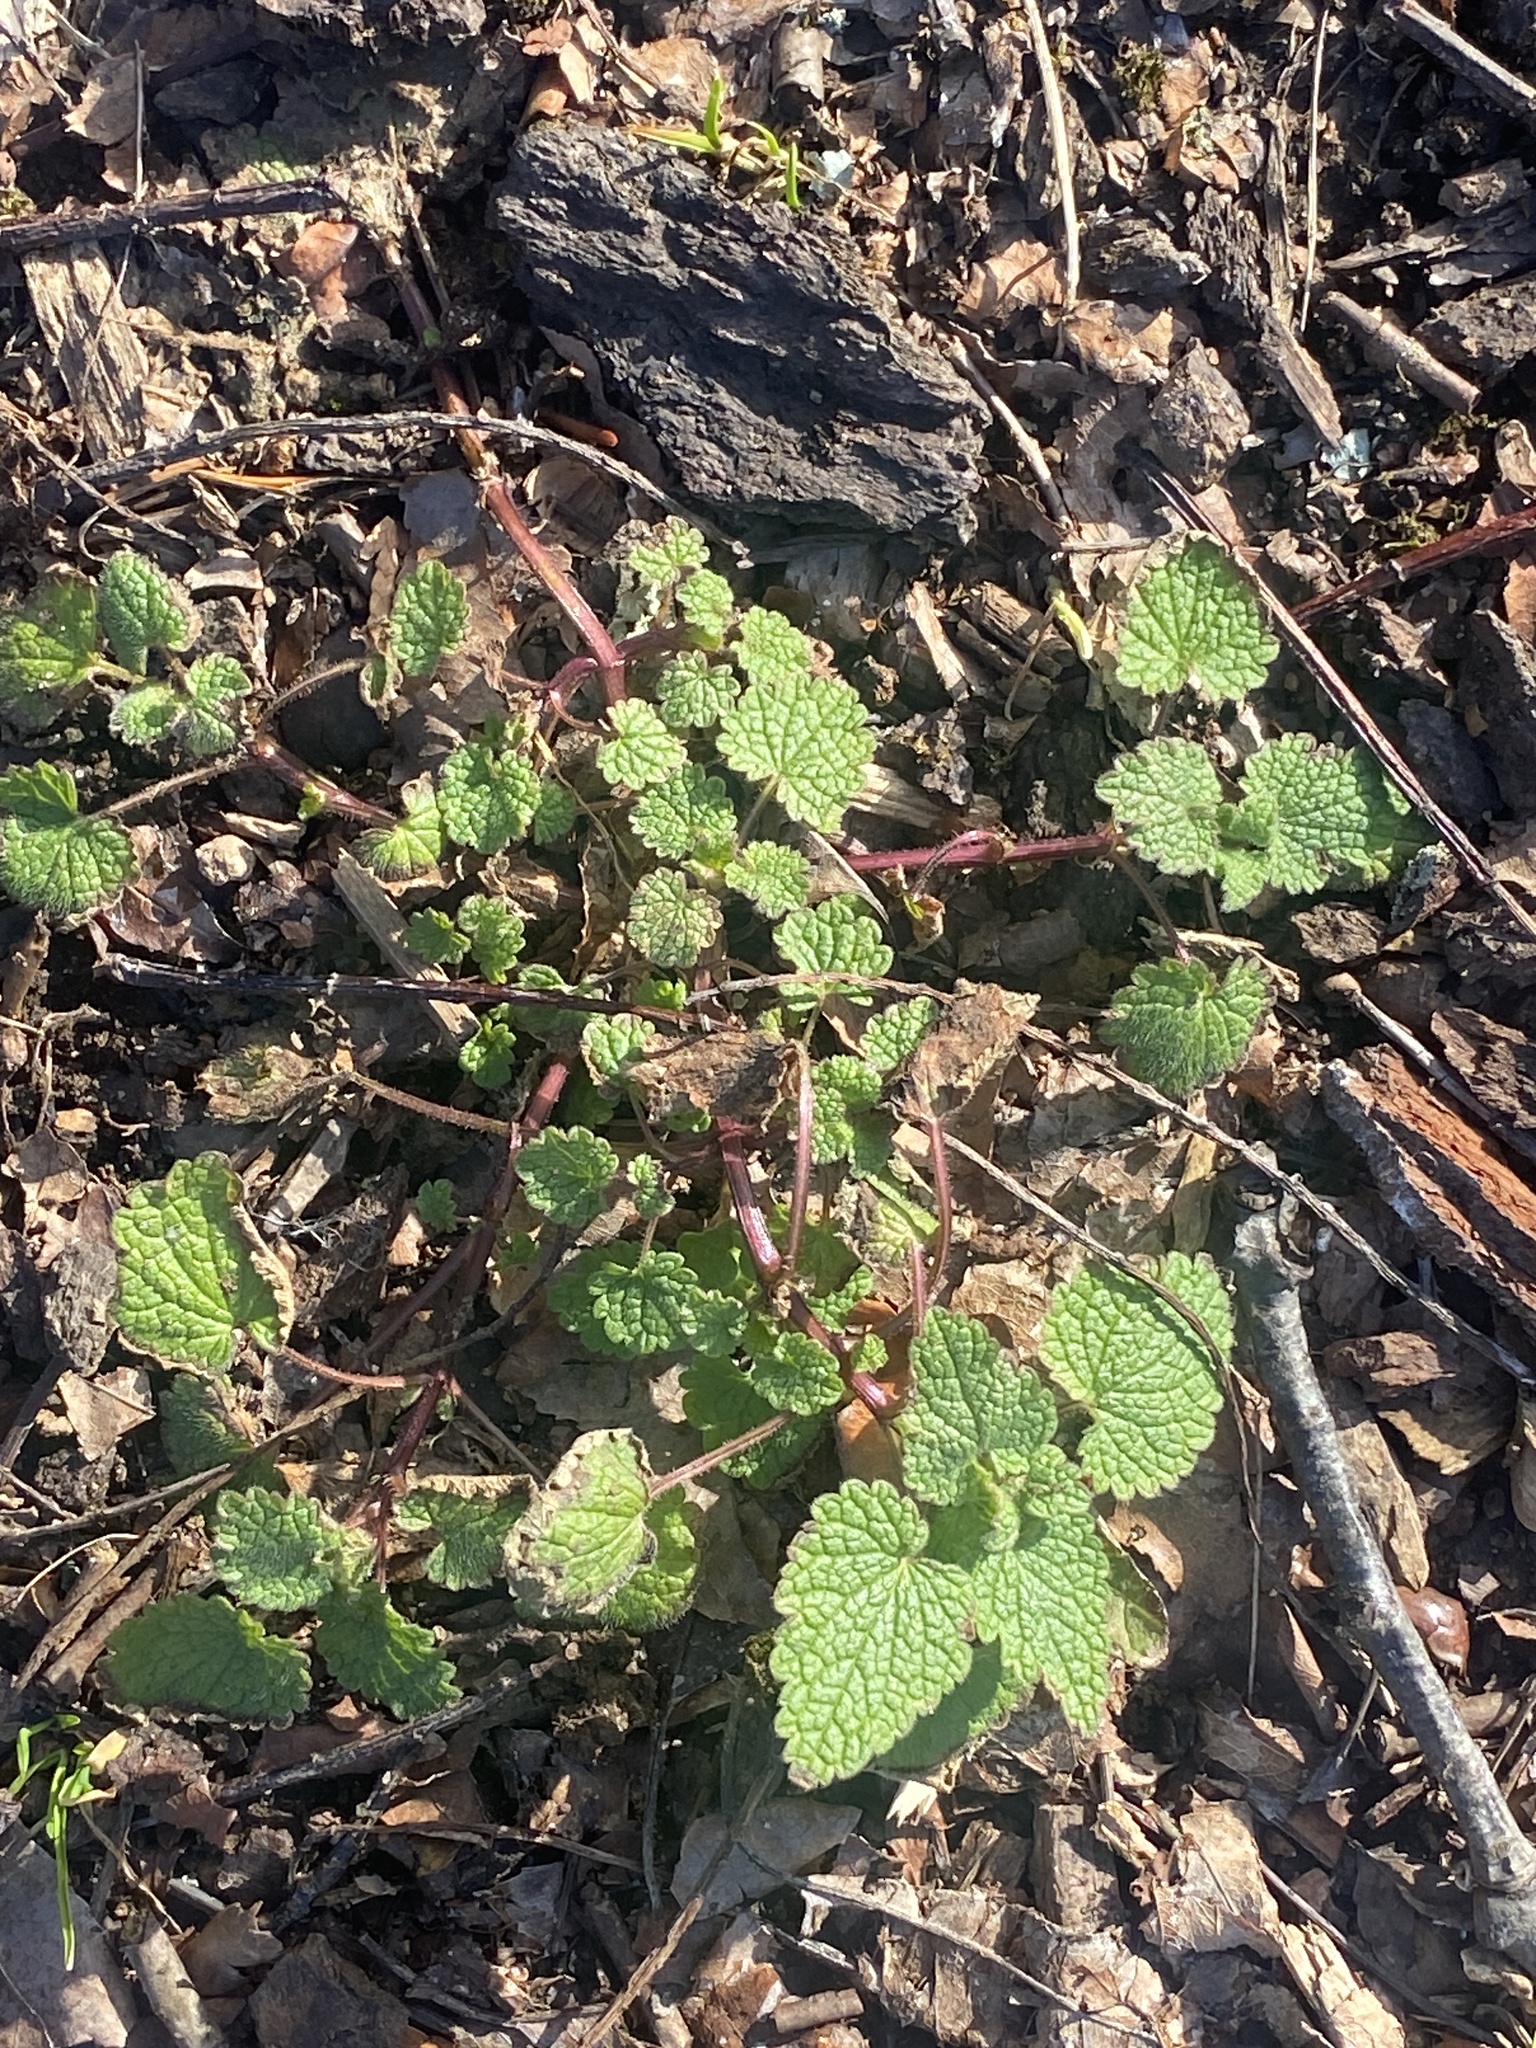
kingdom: Plantae
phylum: Tracheophyta
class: Magnoliopsida
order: Lamiales
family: Lamiaceae
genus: Lamium
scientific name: Lamium purpureum
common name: Red dead-nettle
